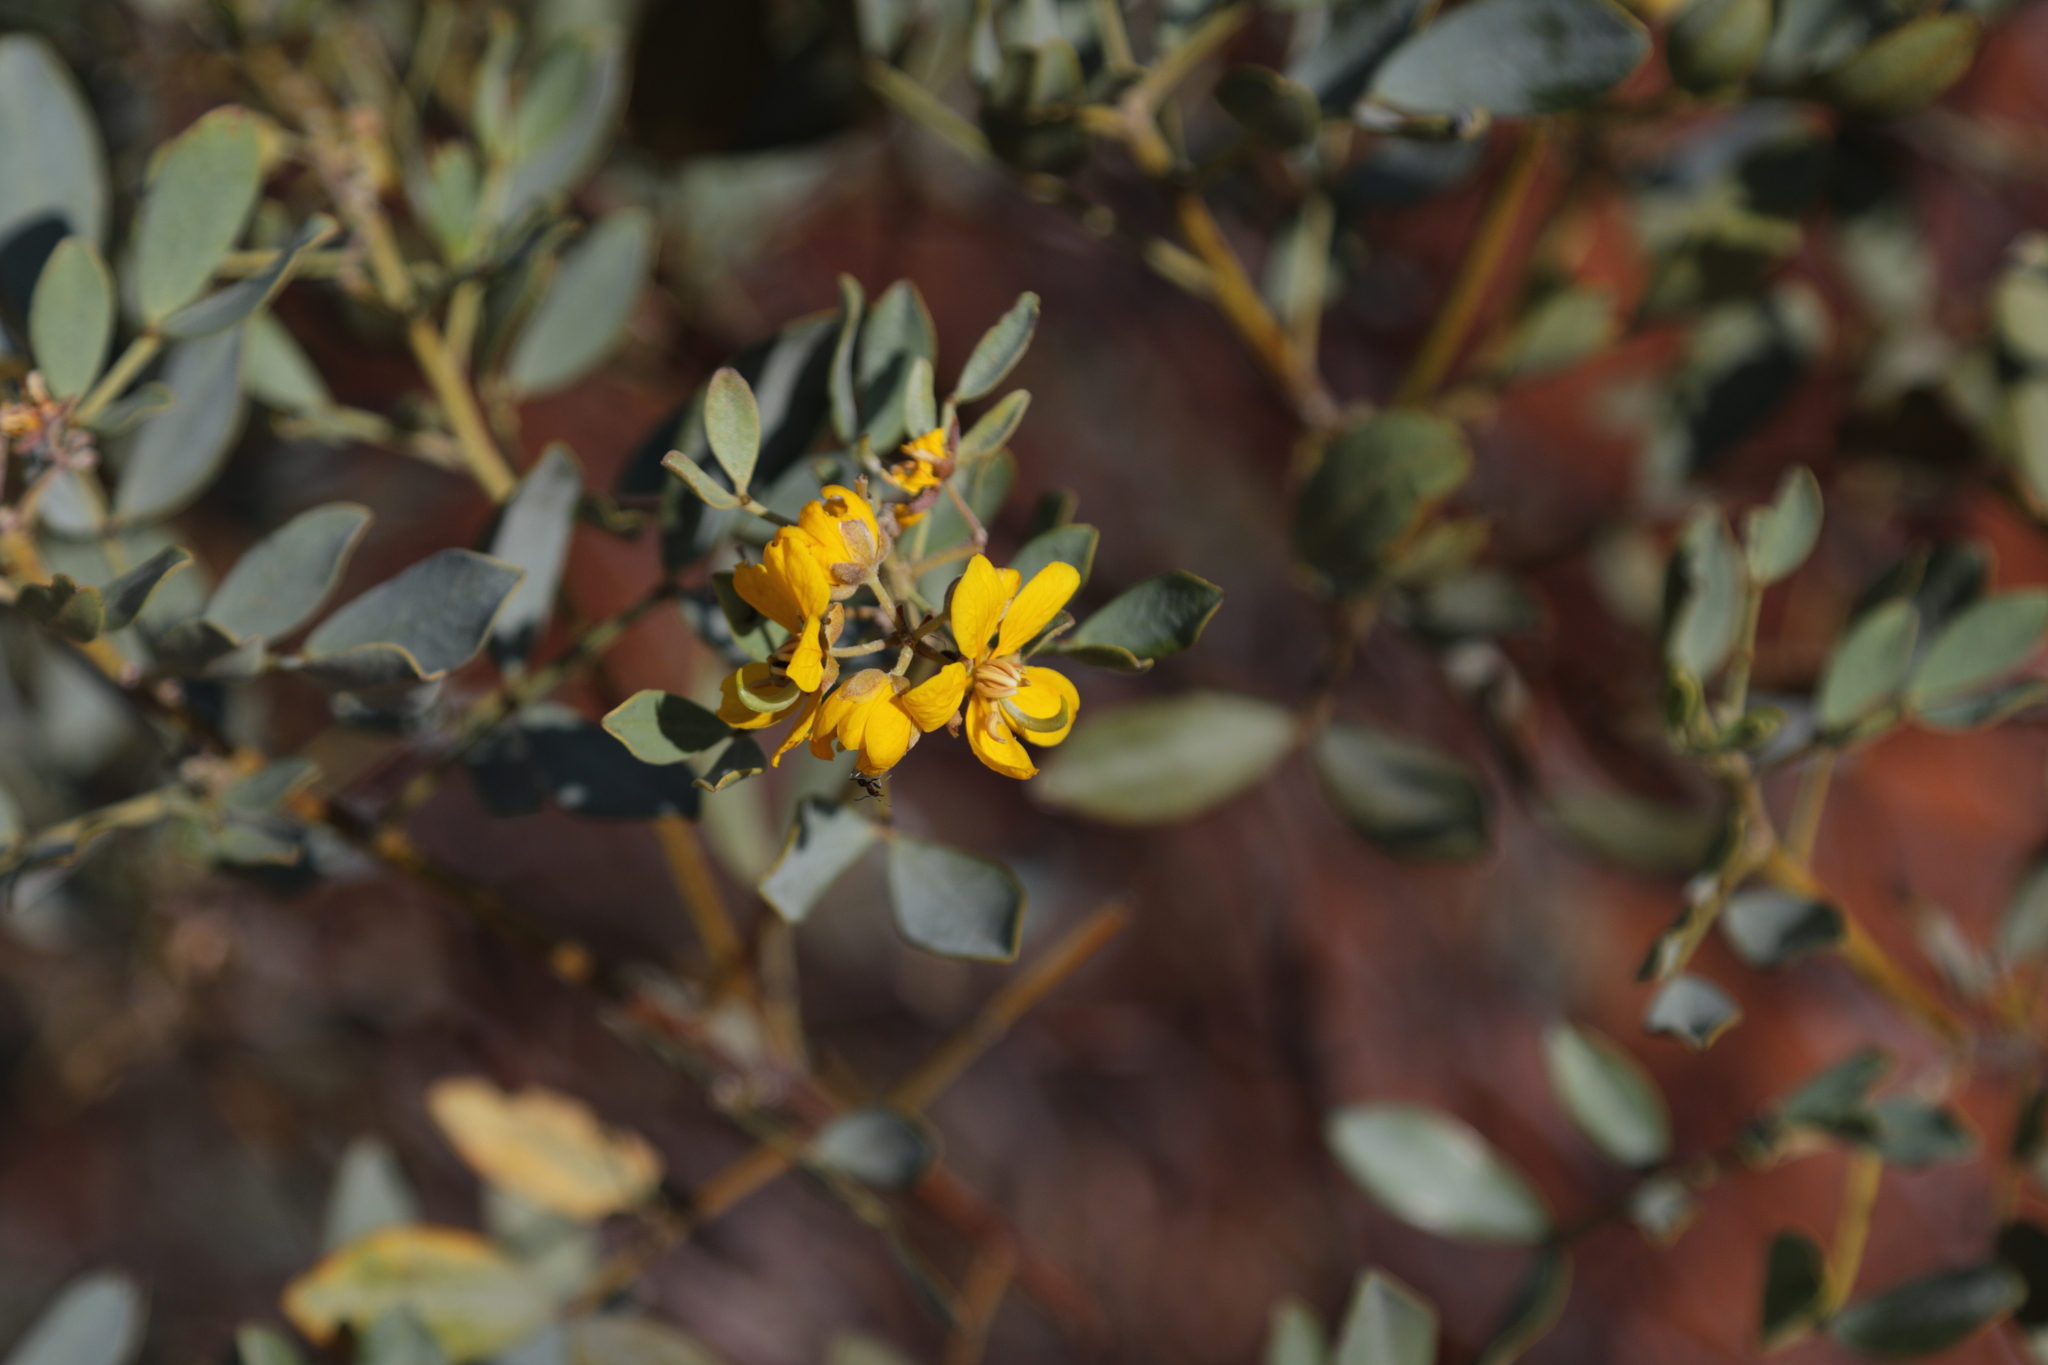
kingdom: Plantae
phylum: Tracheophyta
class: Magnoliopsida
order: Fabales
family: Fabaceae
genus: Senna
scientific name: Senna artemisioides
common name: Burnt-leaved acacia
